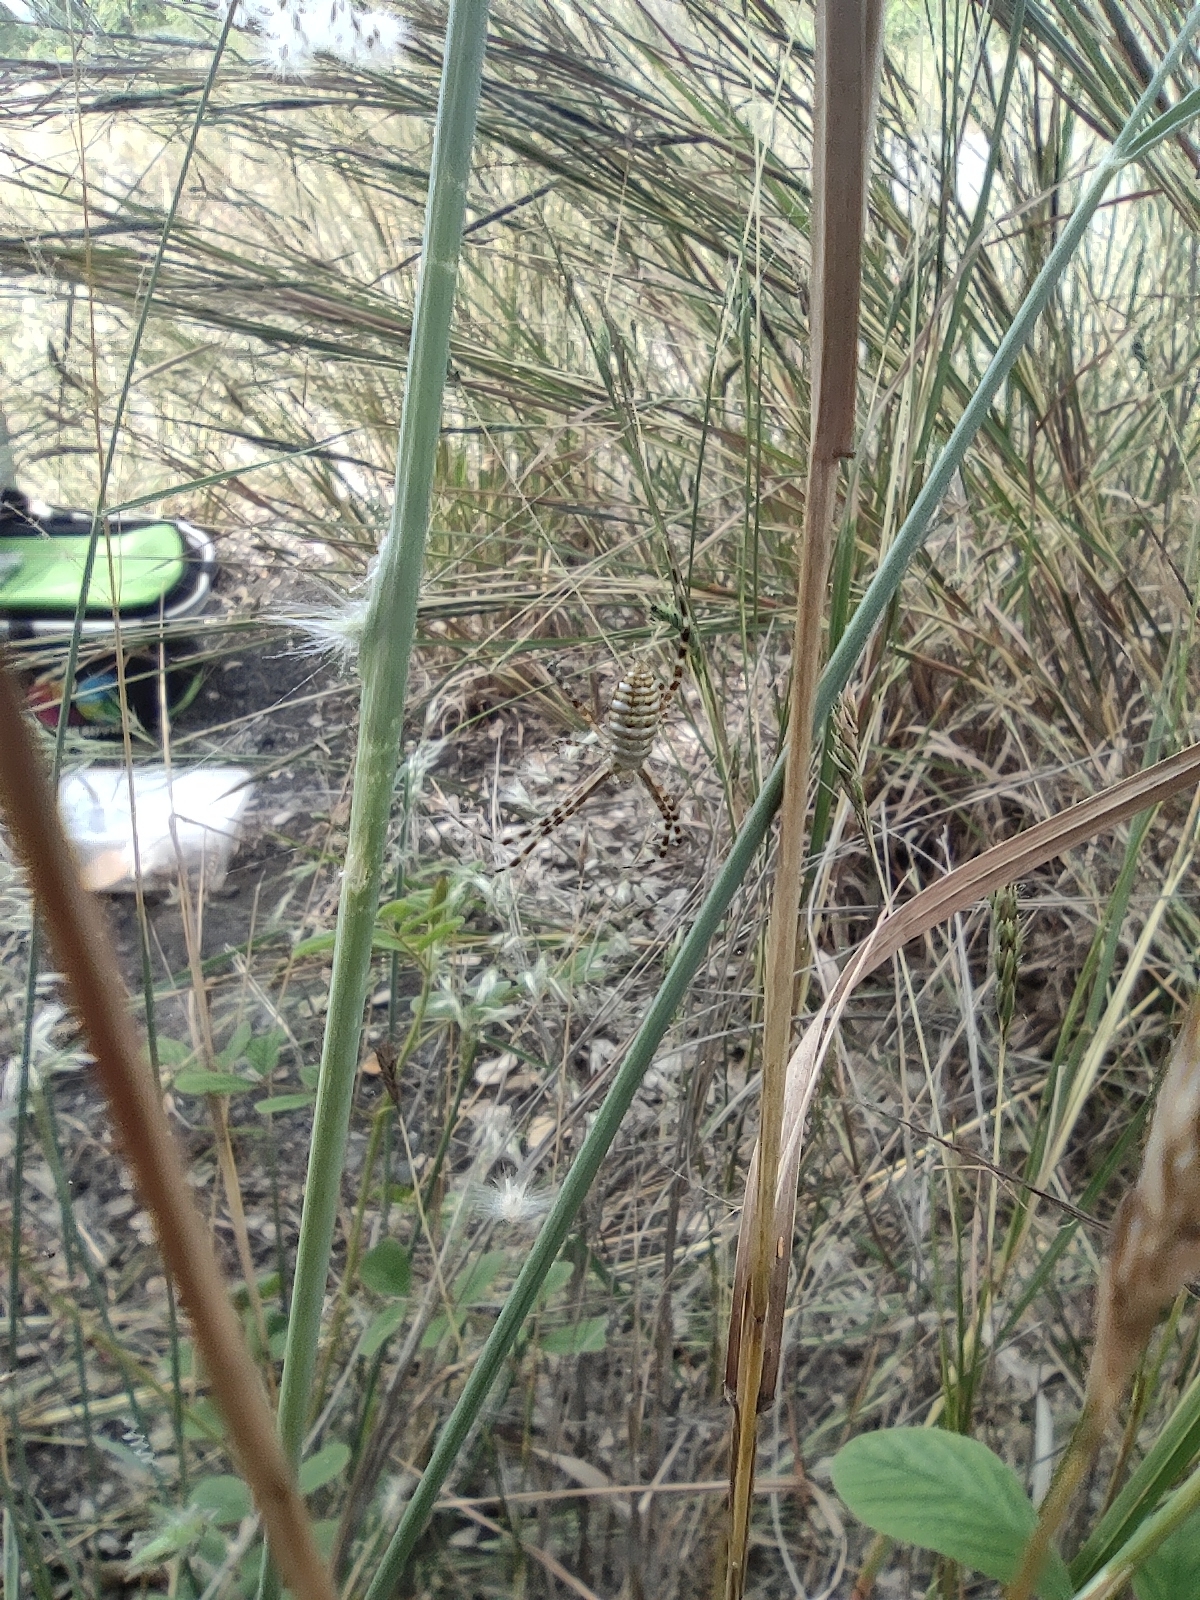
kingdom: Animalia
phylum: Arthropoda
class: Arachnida
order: Araneae
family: Araneidae
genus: Argiope
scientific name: Argiope trifasciata
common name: Banded garden spider
